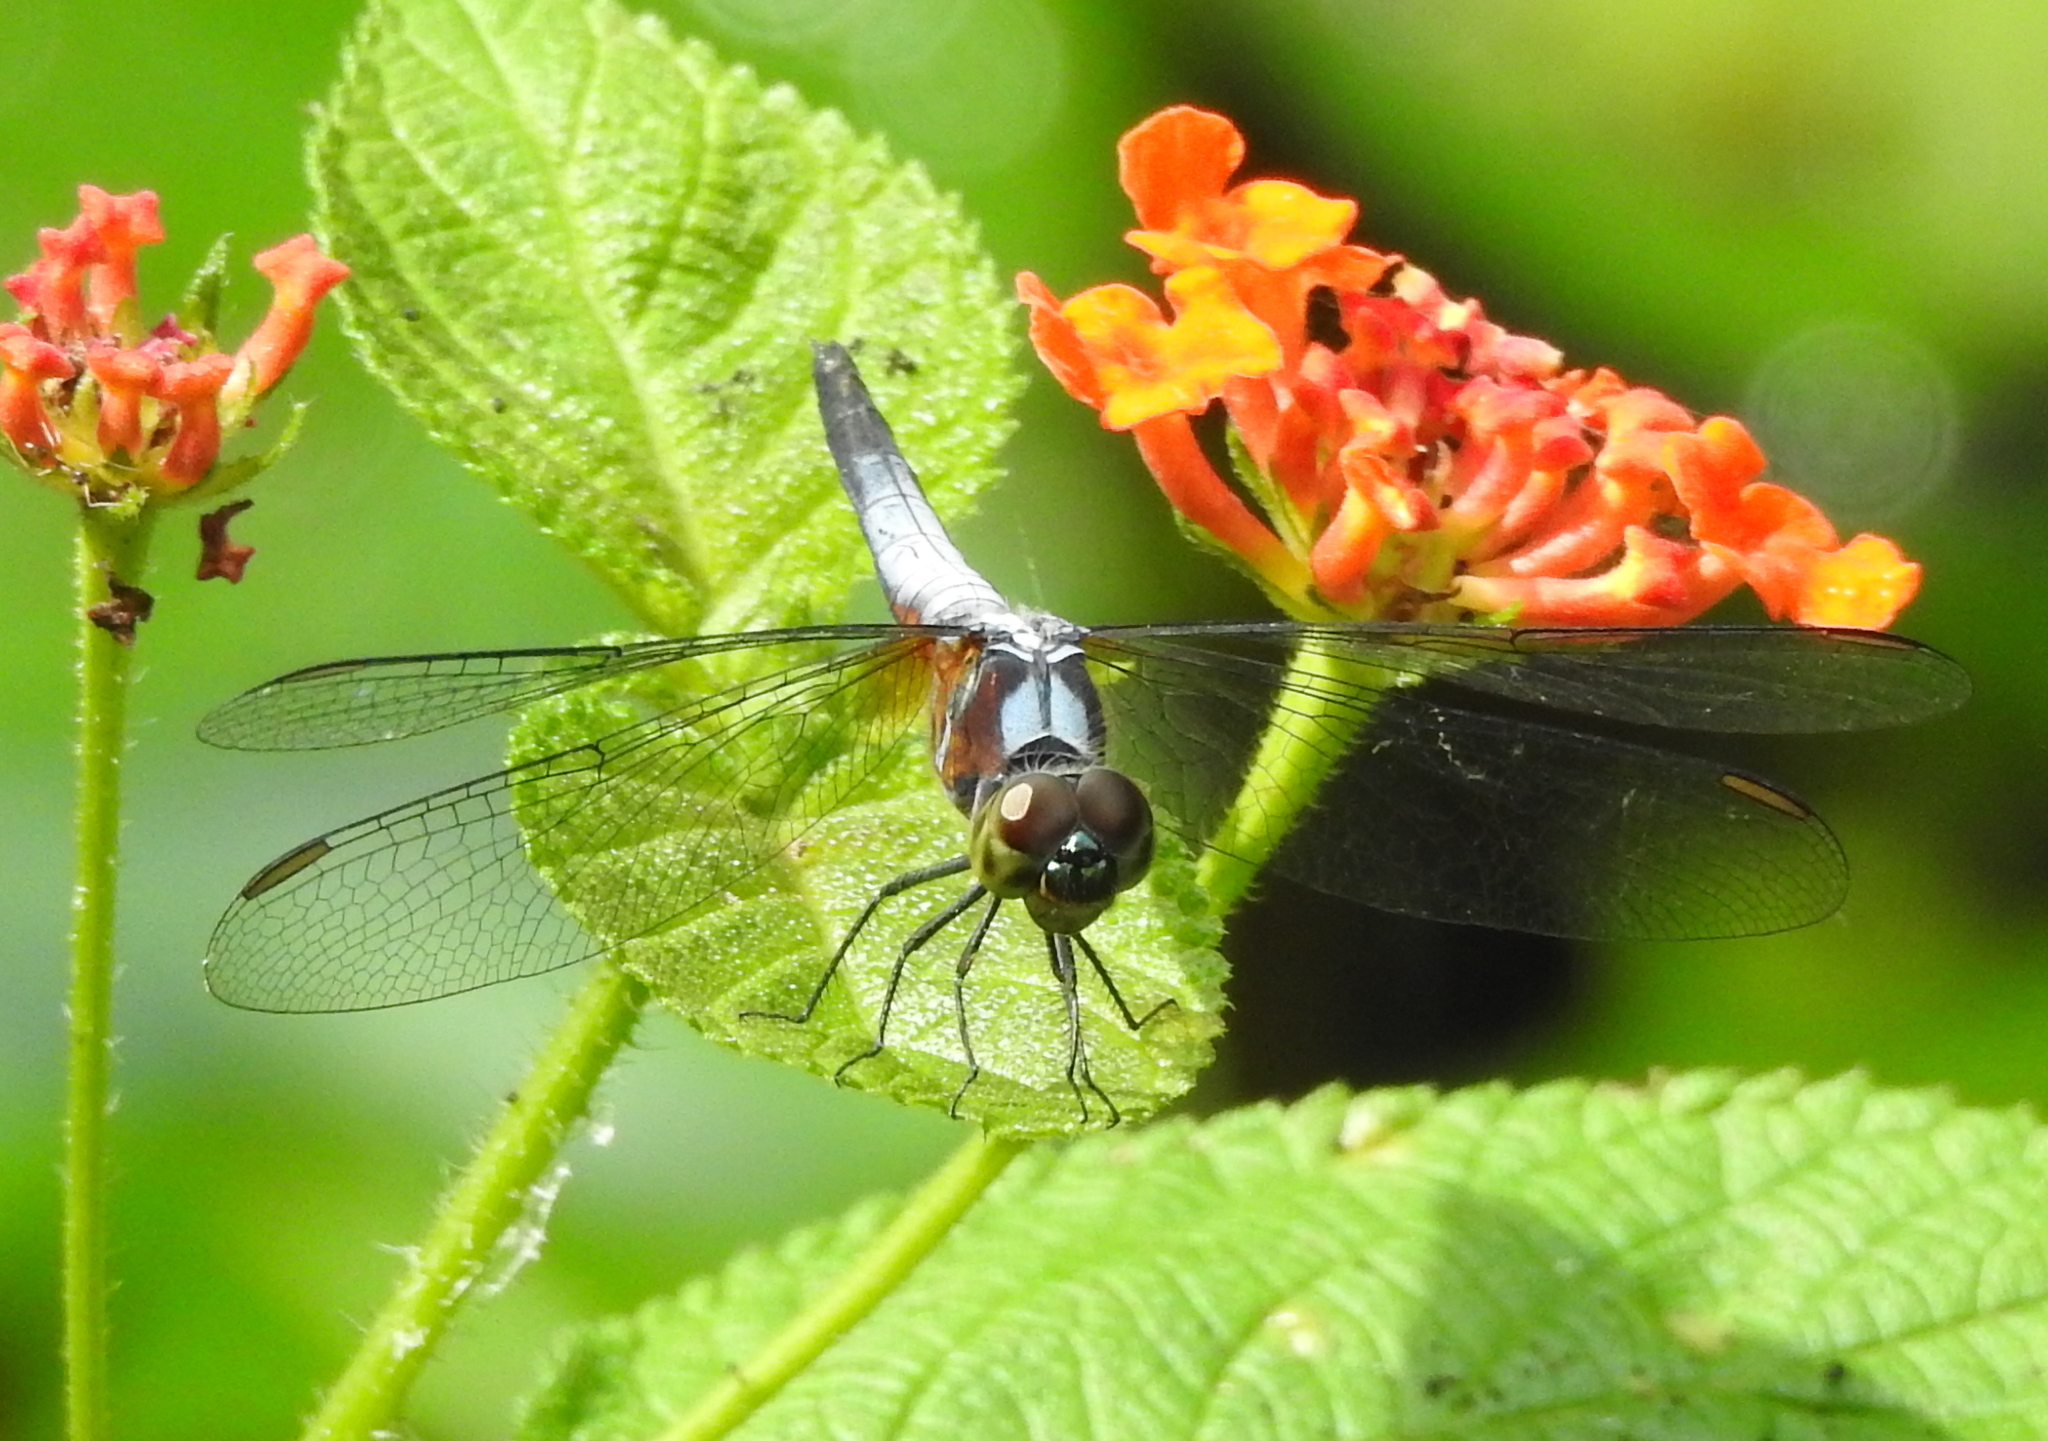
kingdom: Animalia
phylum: Arthropoda
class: Insecta
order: Odonata
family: Libellulidae
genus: Brachydiplax
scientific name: Brachydiplax chalybea
